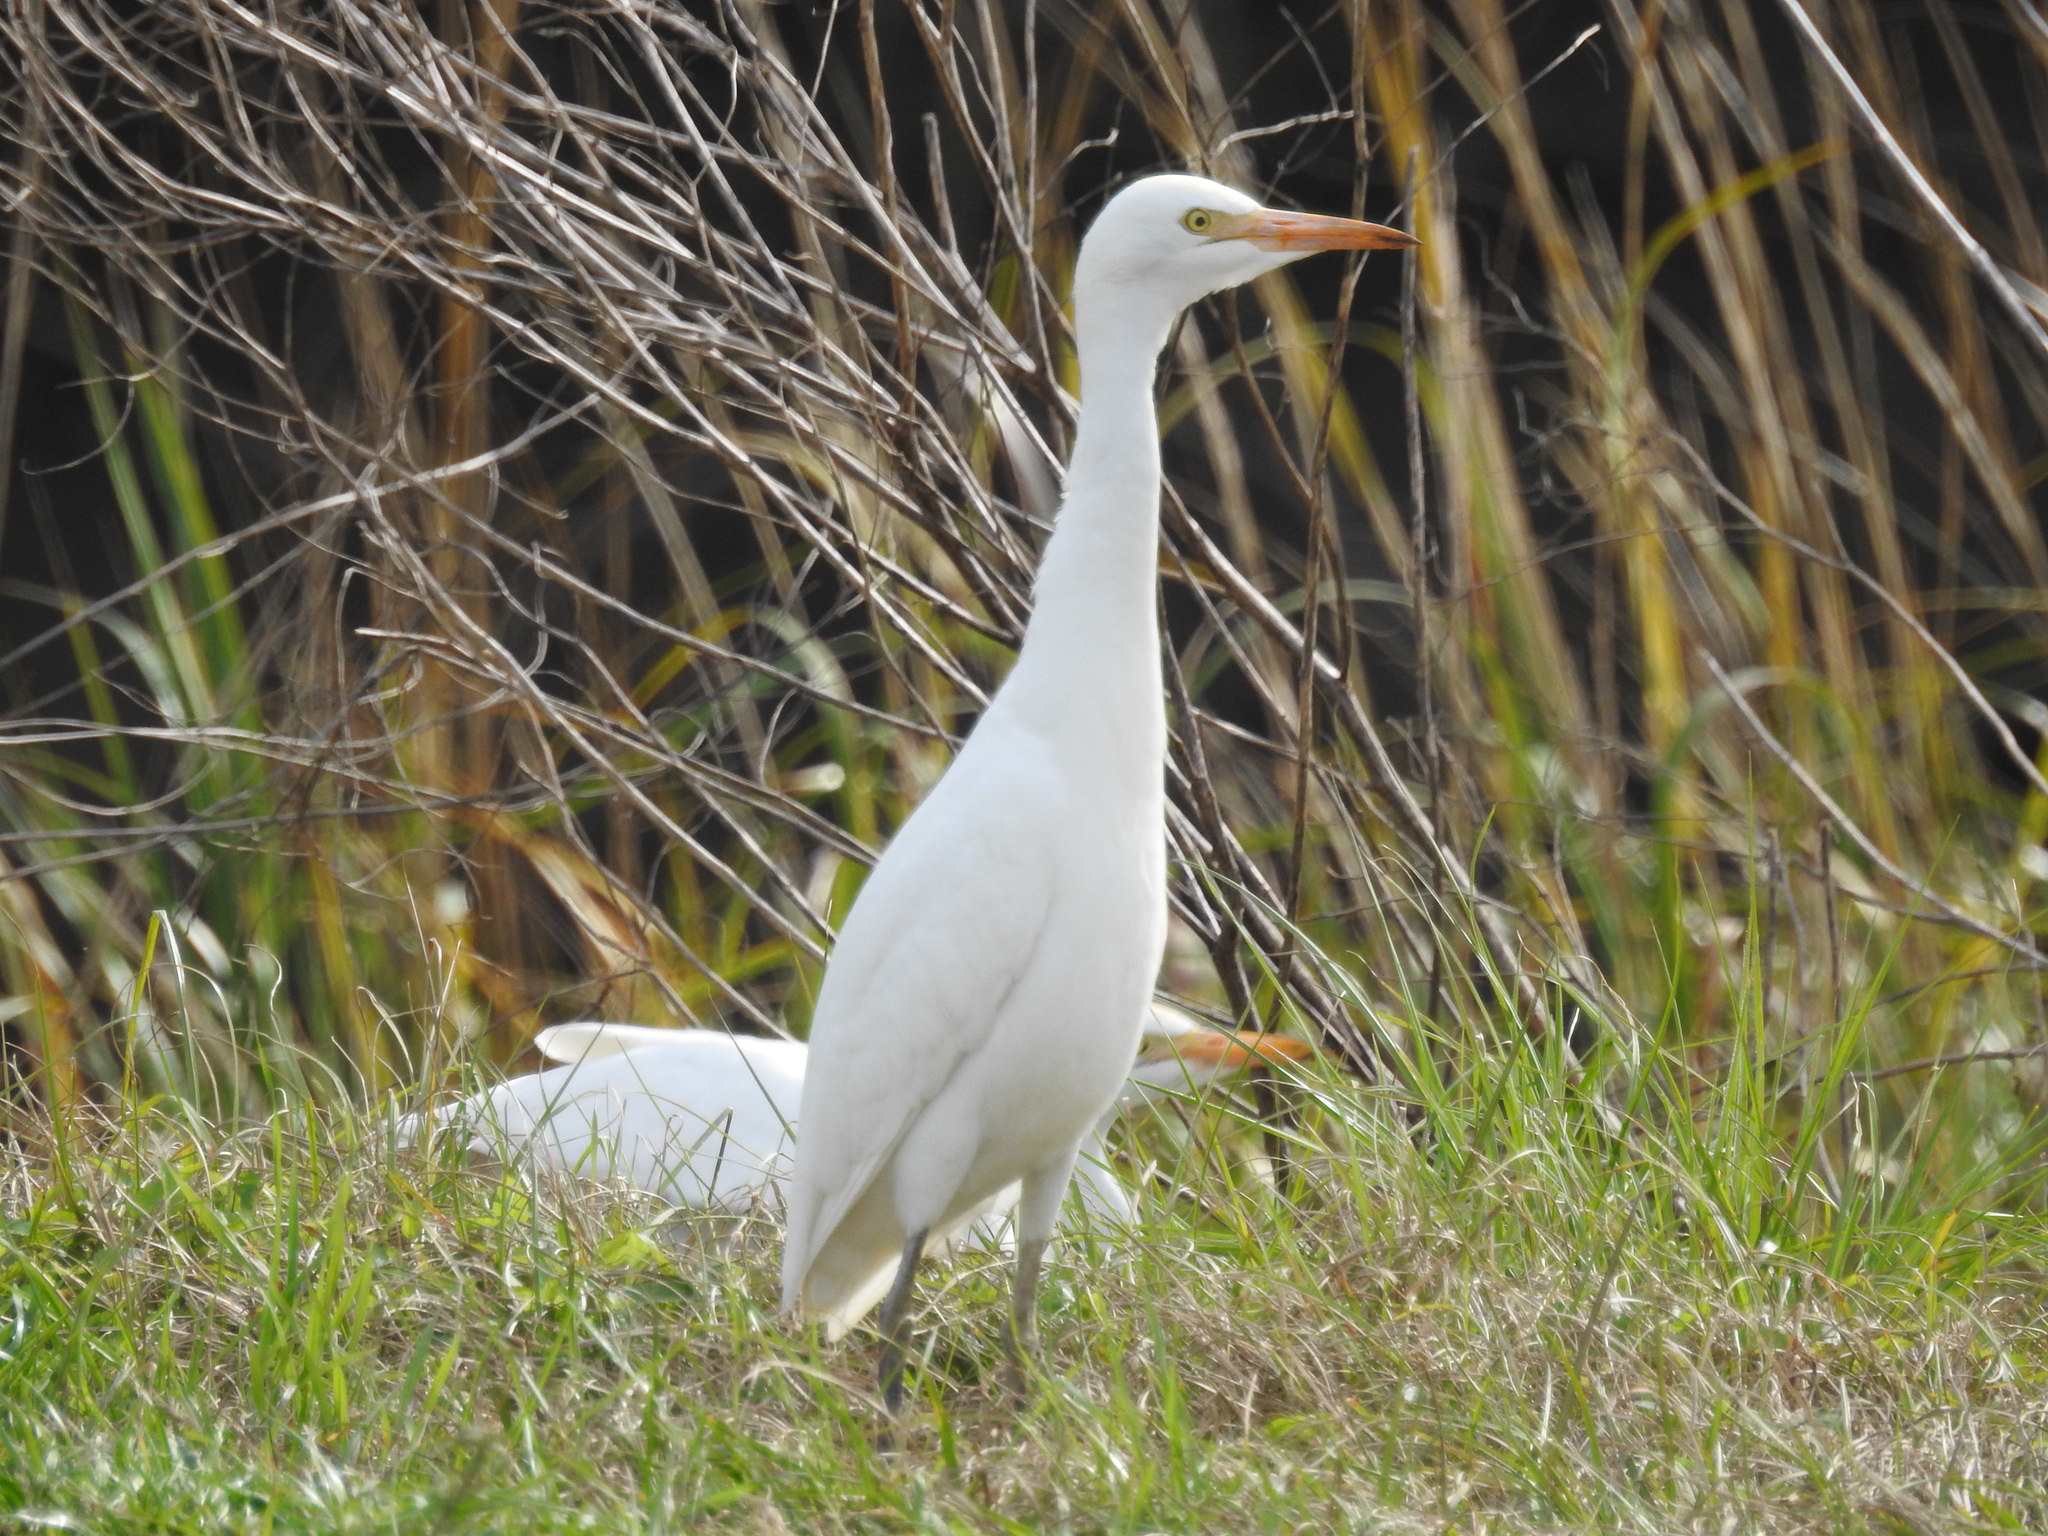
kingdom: Animalia
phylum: Chordata
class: Aves
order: Pelecaniformes
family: Ardeidae
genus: Bubulcus
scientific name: Bubulcus ibis
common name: Cattle egret
